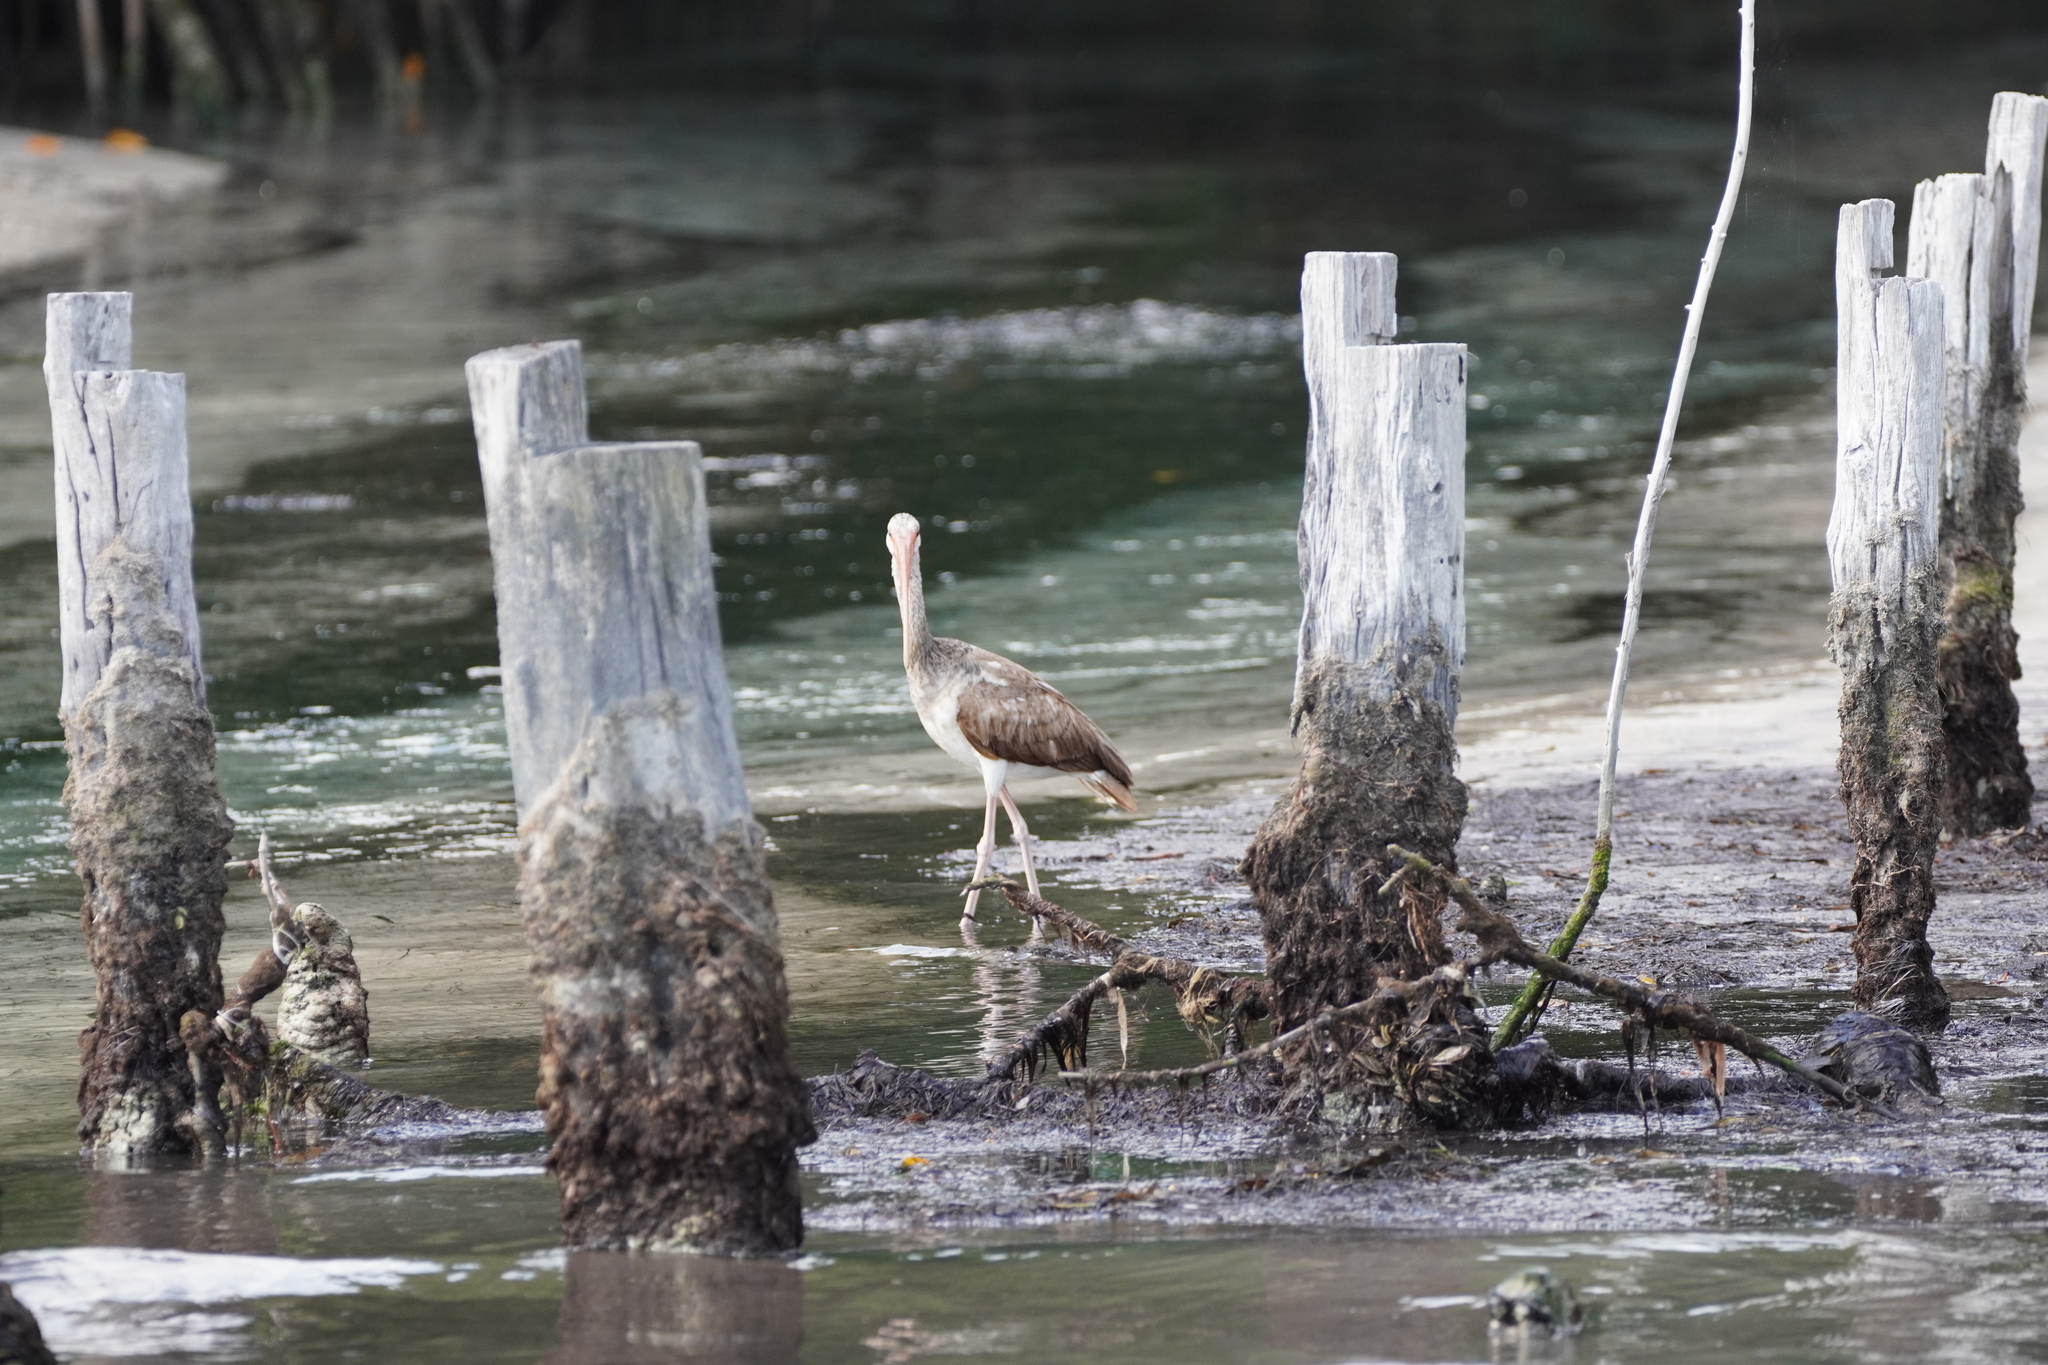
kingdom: Animalia
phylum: Chordata
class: Aves
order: Pelecaniformes
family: Threskiornithidae
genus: Eudocimus
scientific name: Eudocimus albus
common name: White ibis
